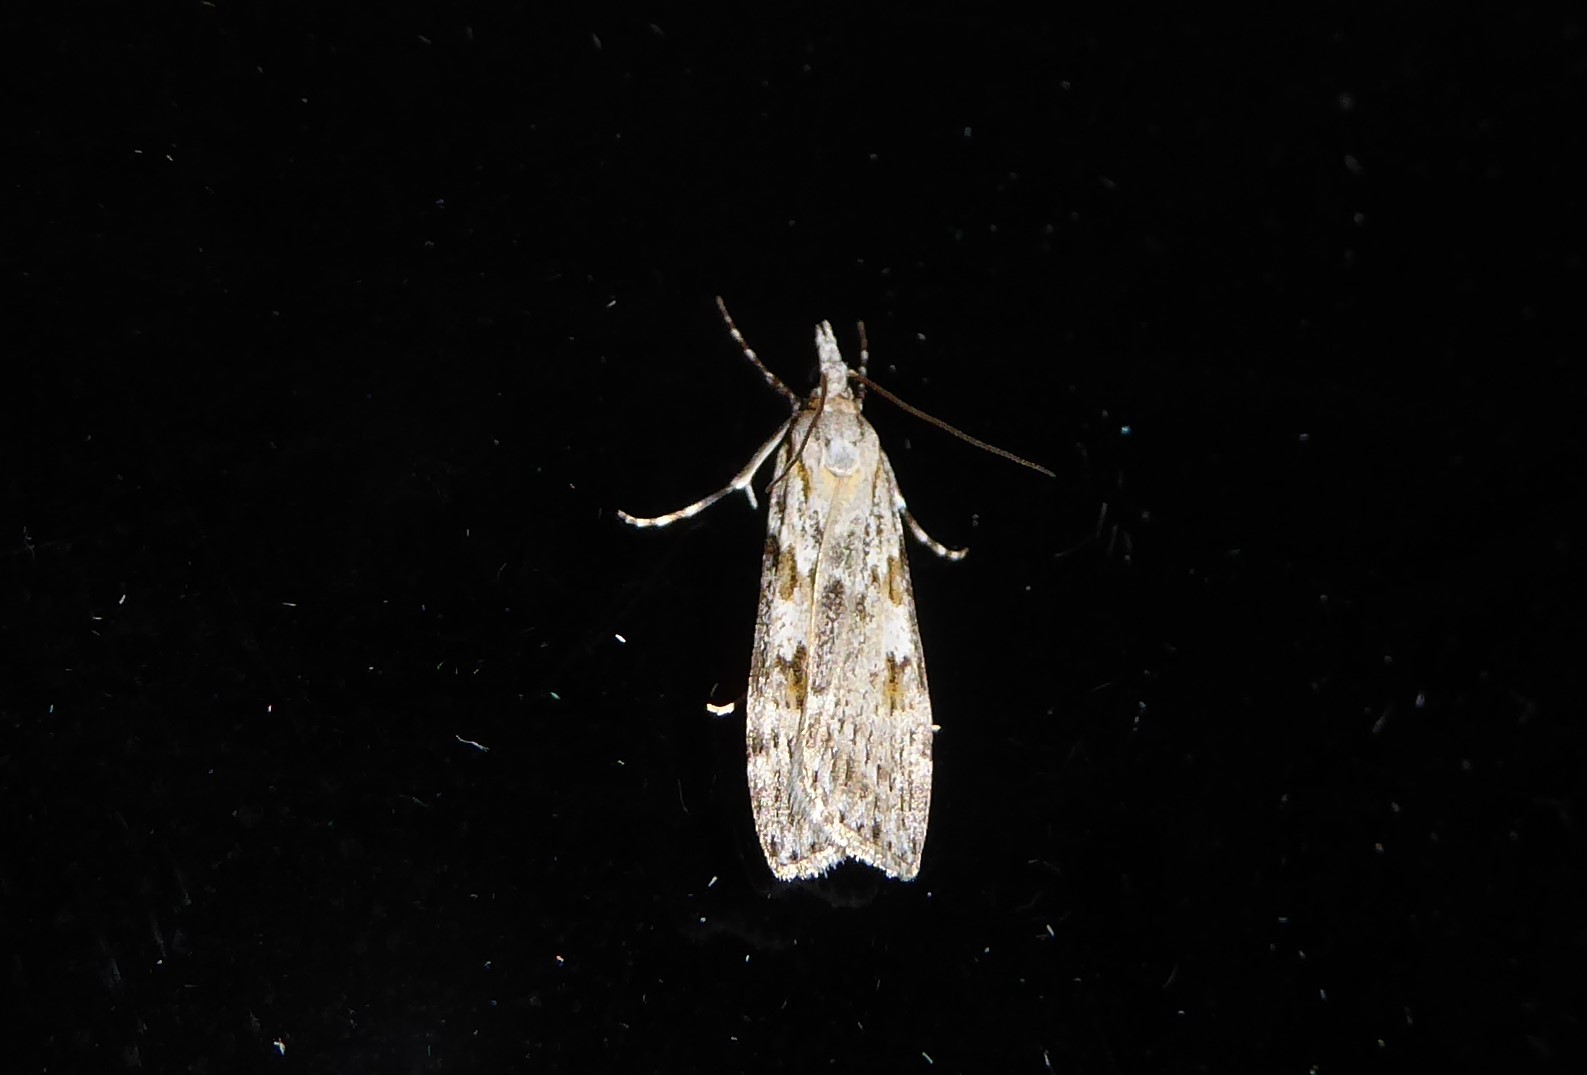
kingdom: Animalia
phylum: Arthropoda
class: Insecta
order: Lepidoptera
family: Crambidae
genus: Scoparia
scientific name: Scoparia halopis
